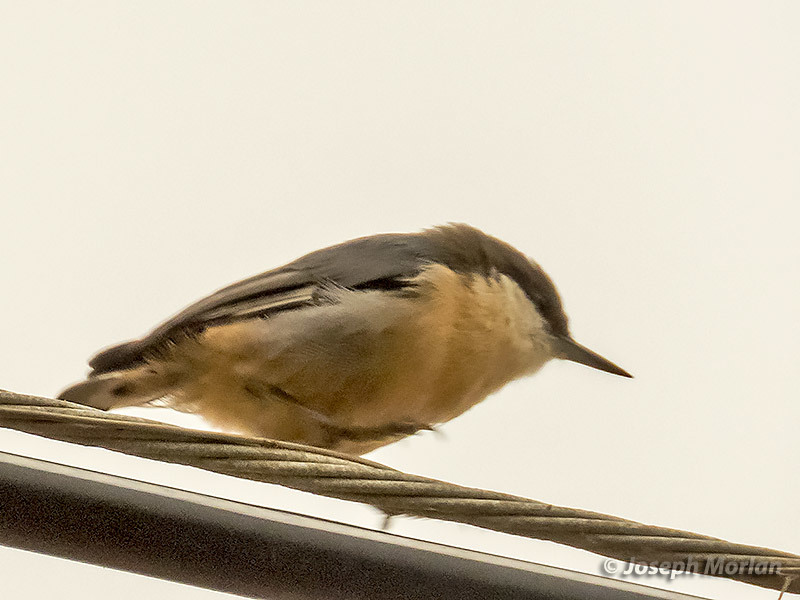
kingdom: Animalia
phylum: Chordata
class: Aves
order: Passeriformes
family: Sittidae
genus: Sitta
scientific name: Sitta pygmaea
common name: Pygmy nuthatch
